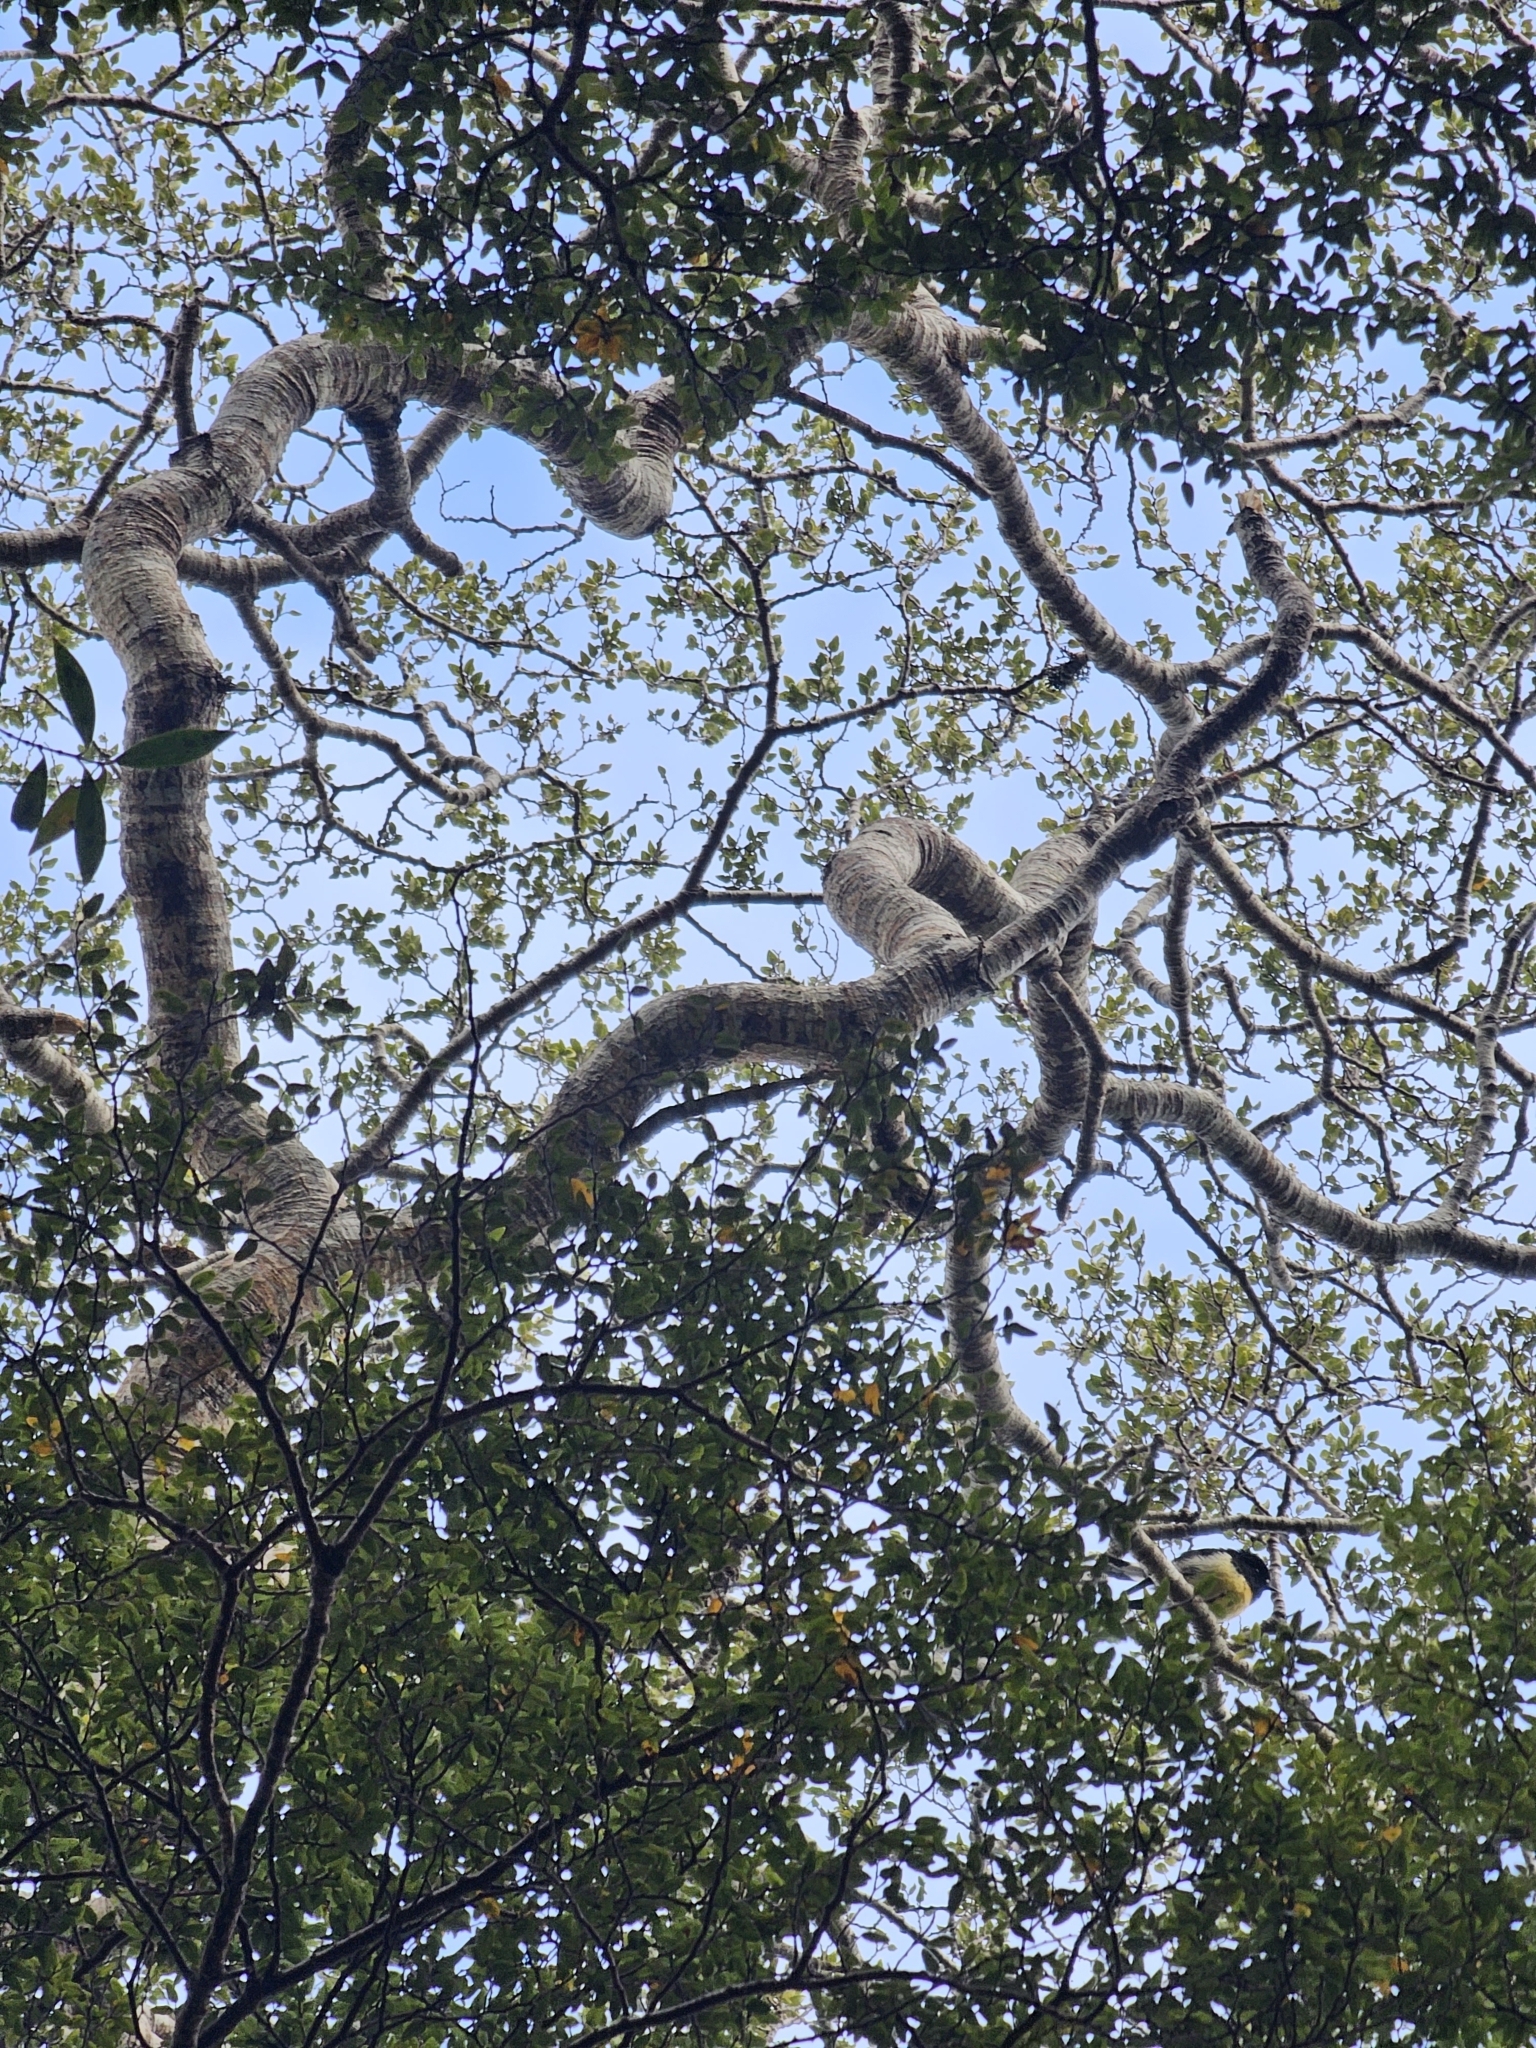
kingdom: Animalia
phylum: Chordata
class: Aves
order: Passeriformes
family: Petroicidae
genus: Petroica
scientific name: Petroica macrocephala
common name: Tomtit
